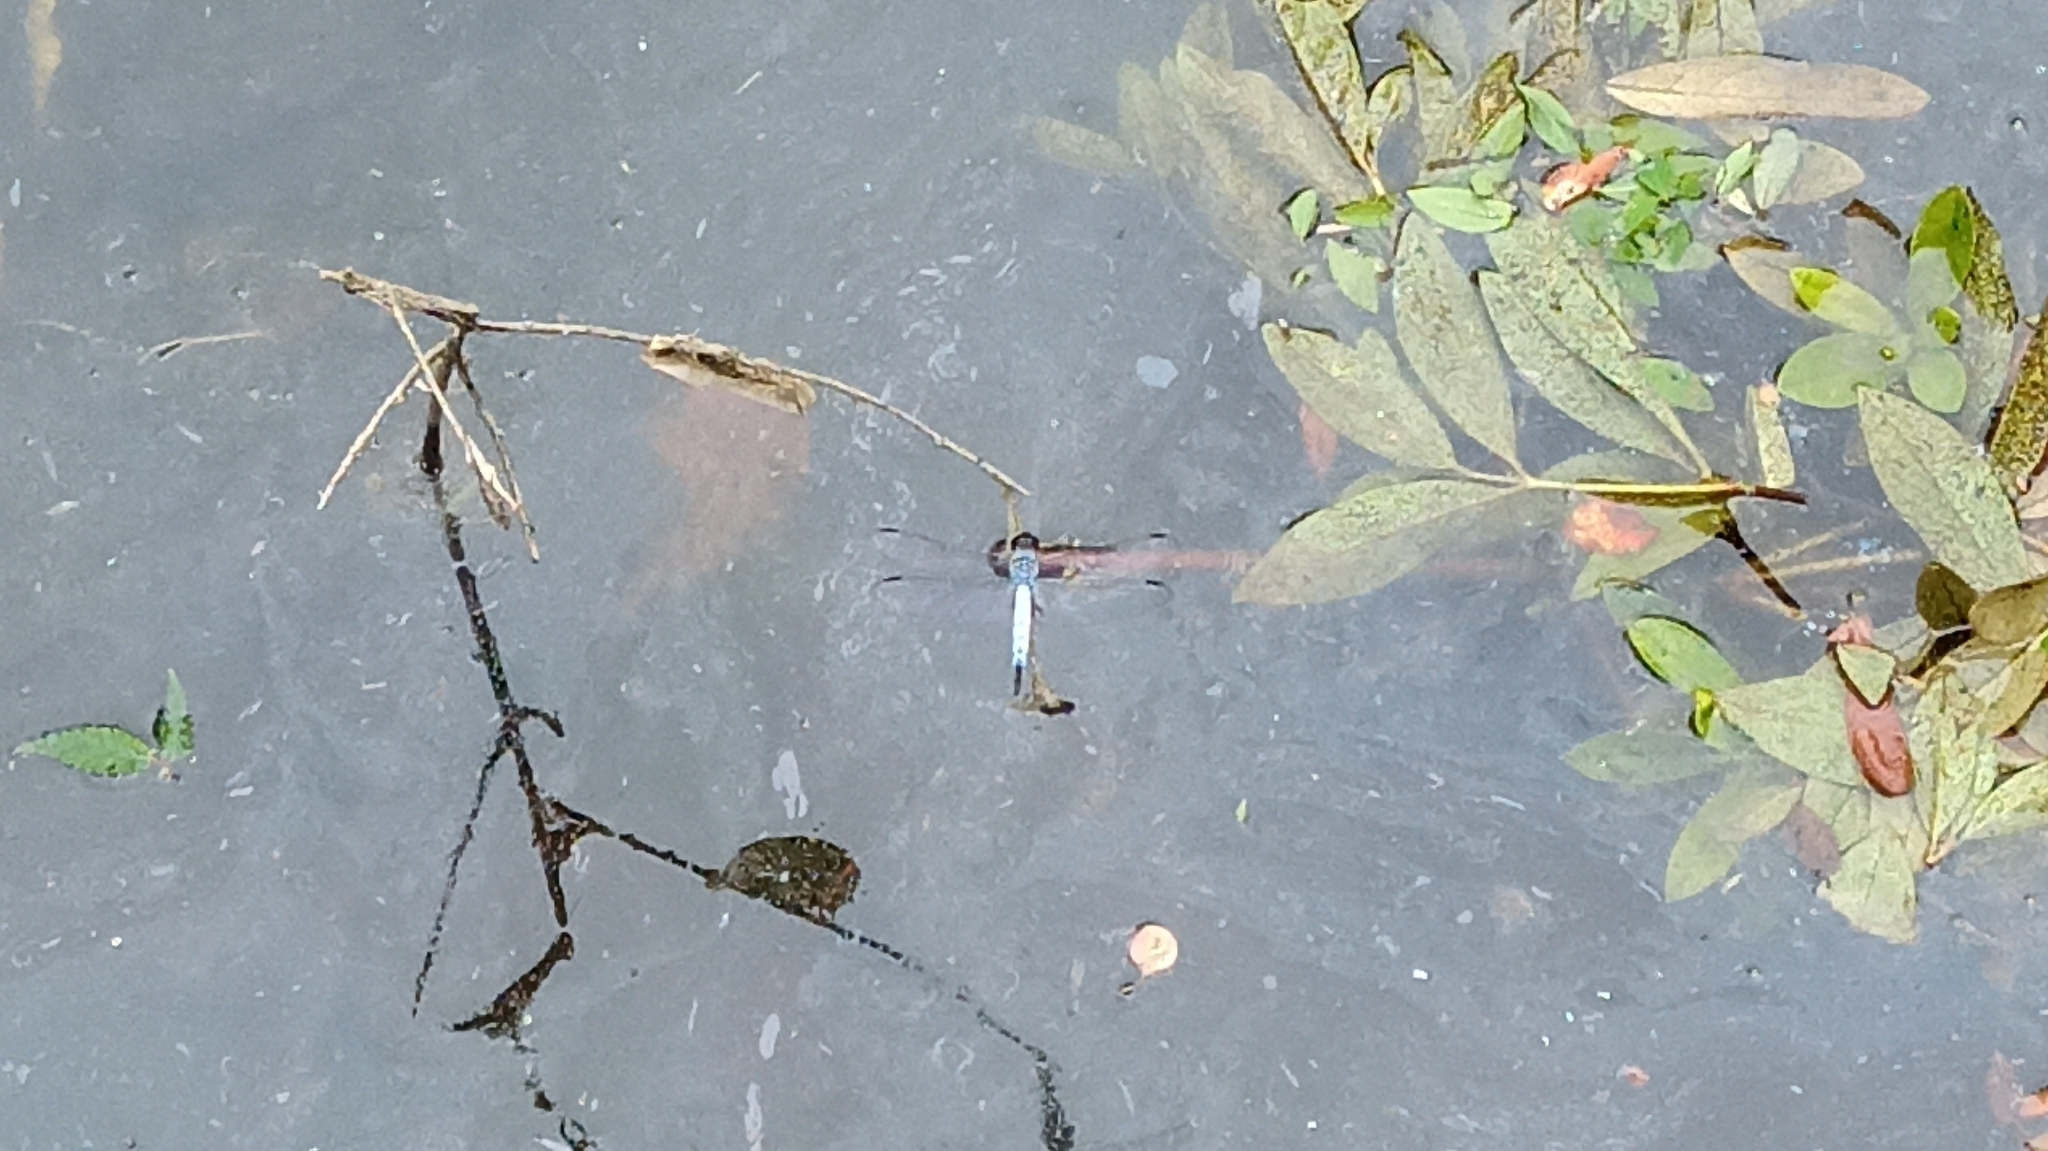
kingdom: Animalia
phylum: Arthropoda
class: Insecta
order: Odonata
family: Libellulidae
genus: Orthetrum
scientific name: Orthetrum melania
